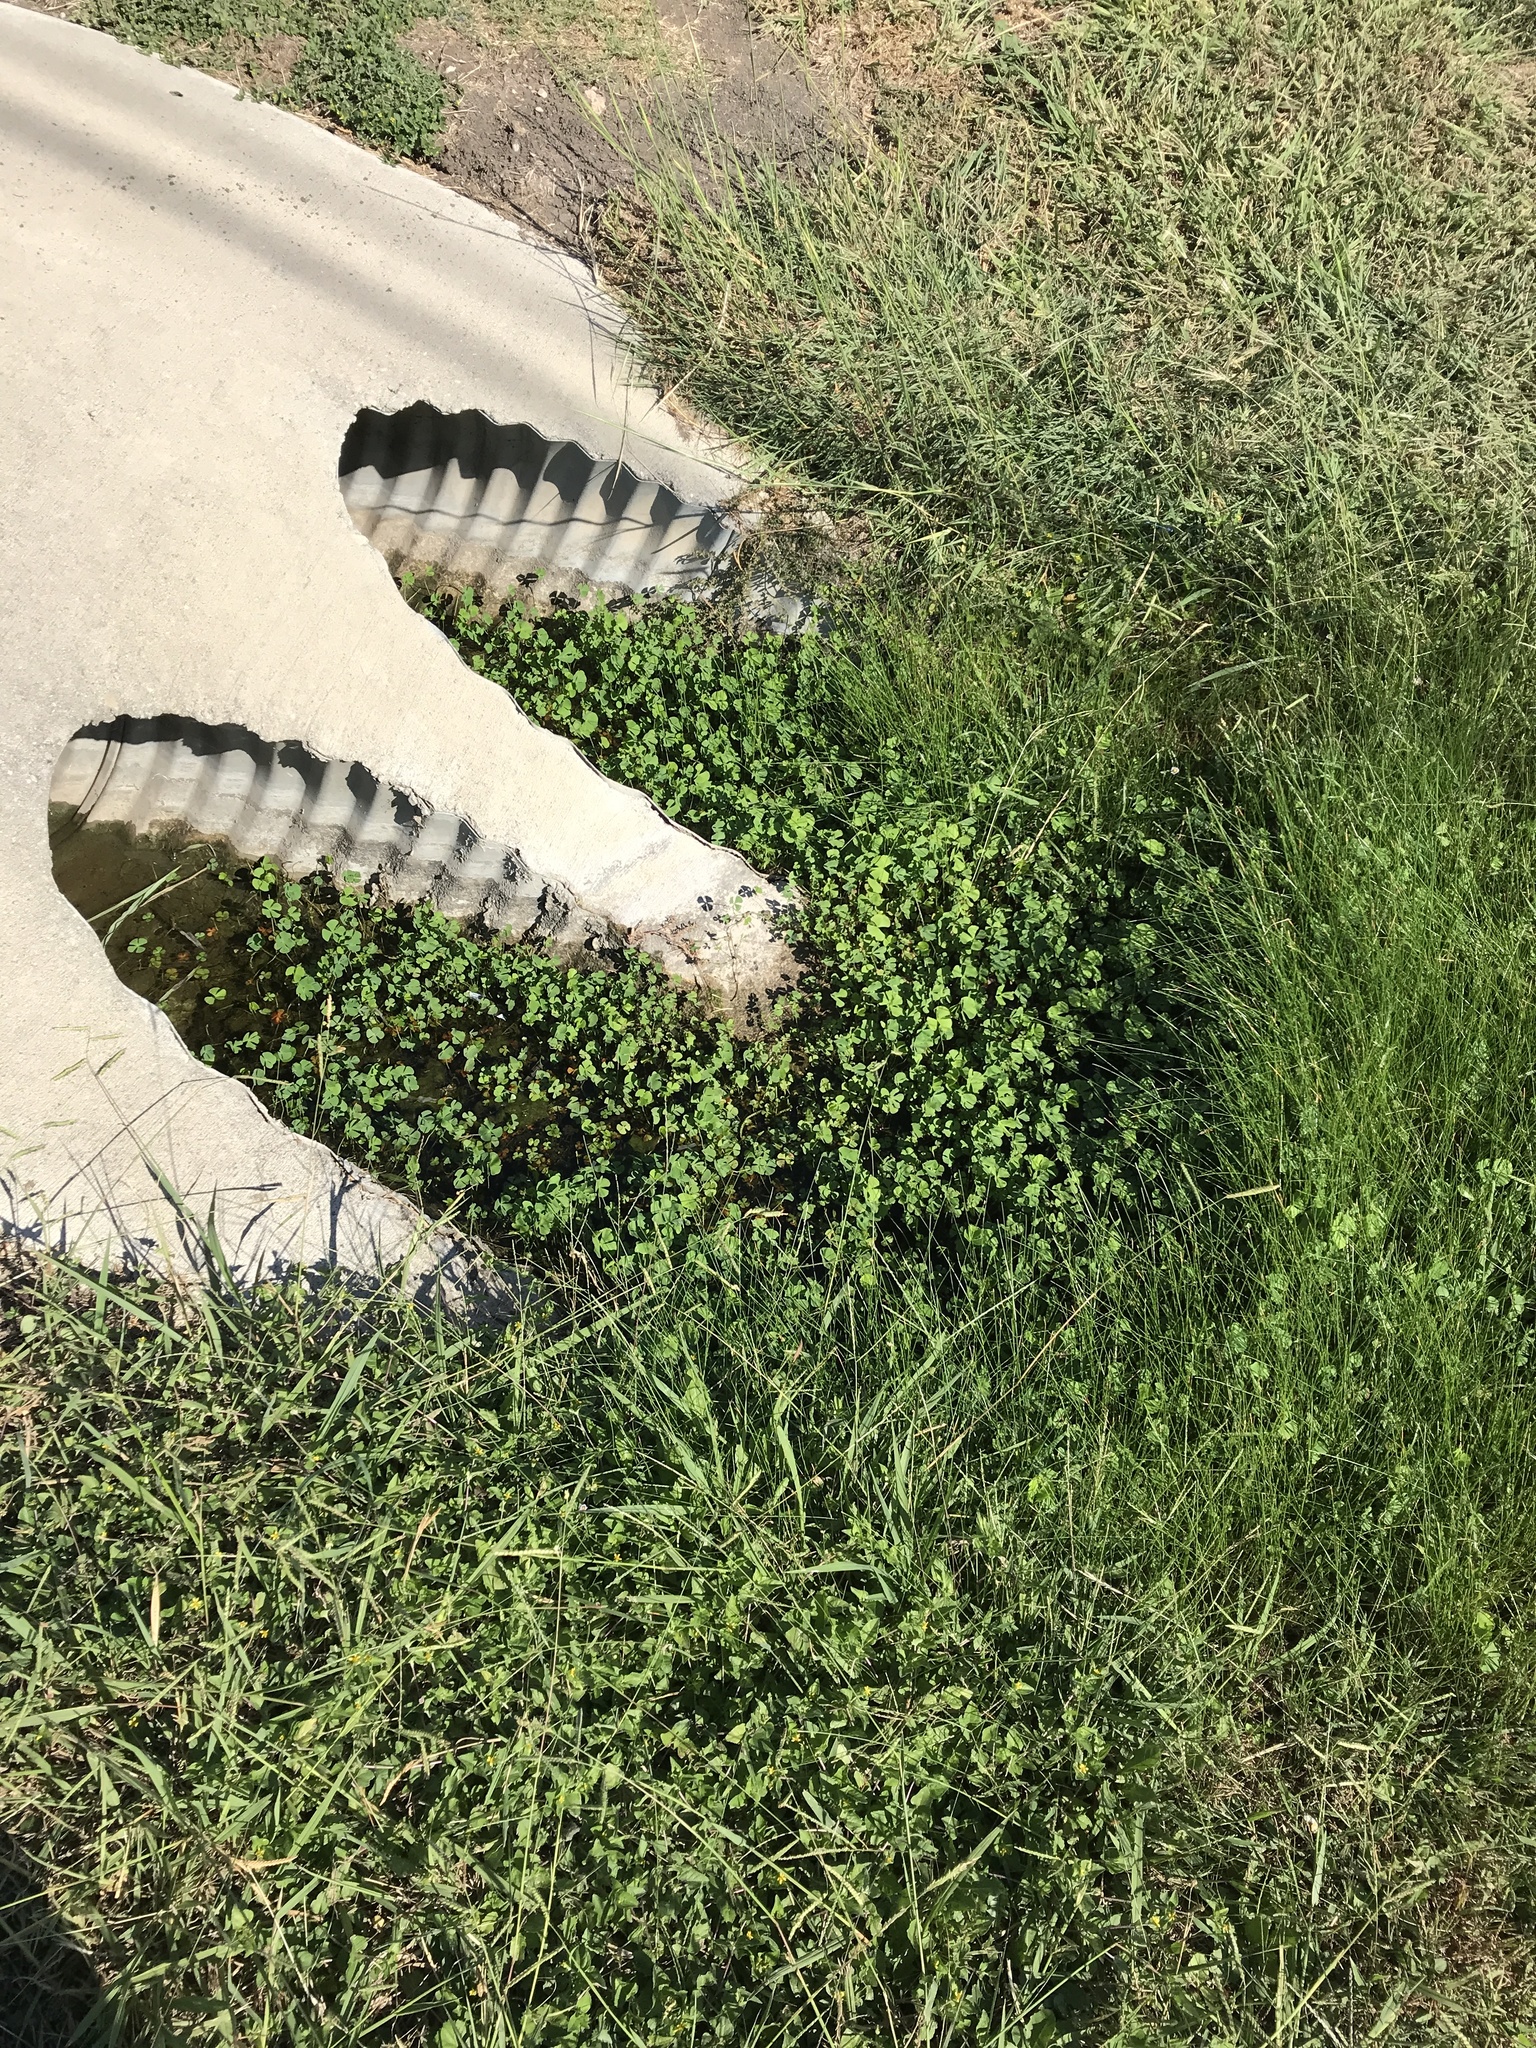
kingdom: Plantae
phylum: Tracheophyta
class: Polypodiopsida
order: Salviniales
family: Marsileaceae
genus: Marsilea
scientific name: Marsilea vestita
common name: Hooked-pepperwort
